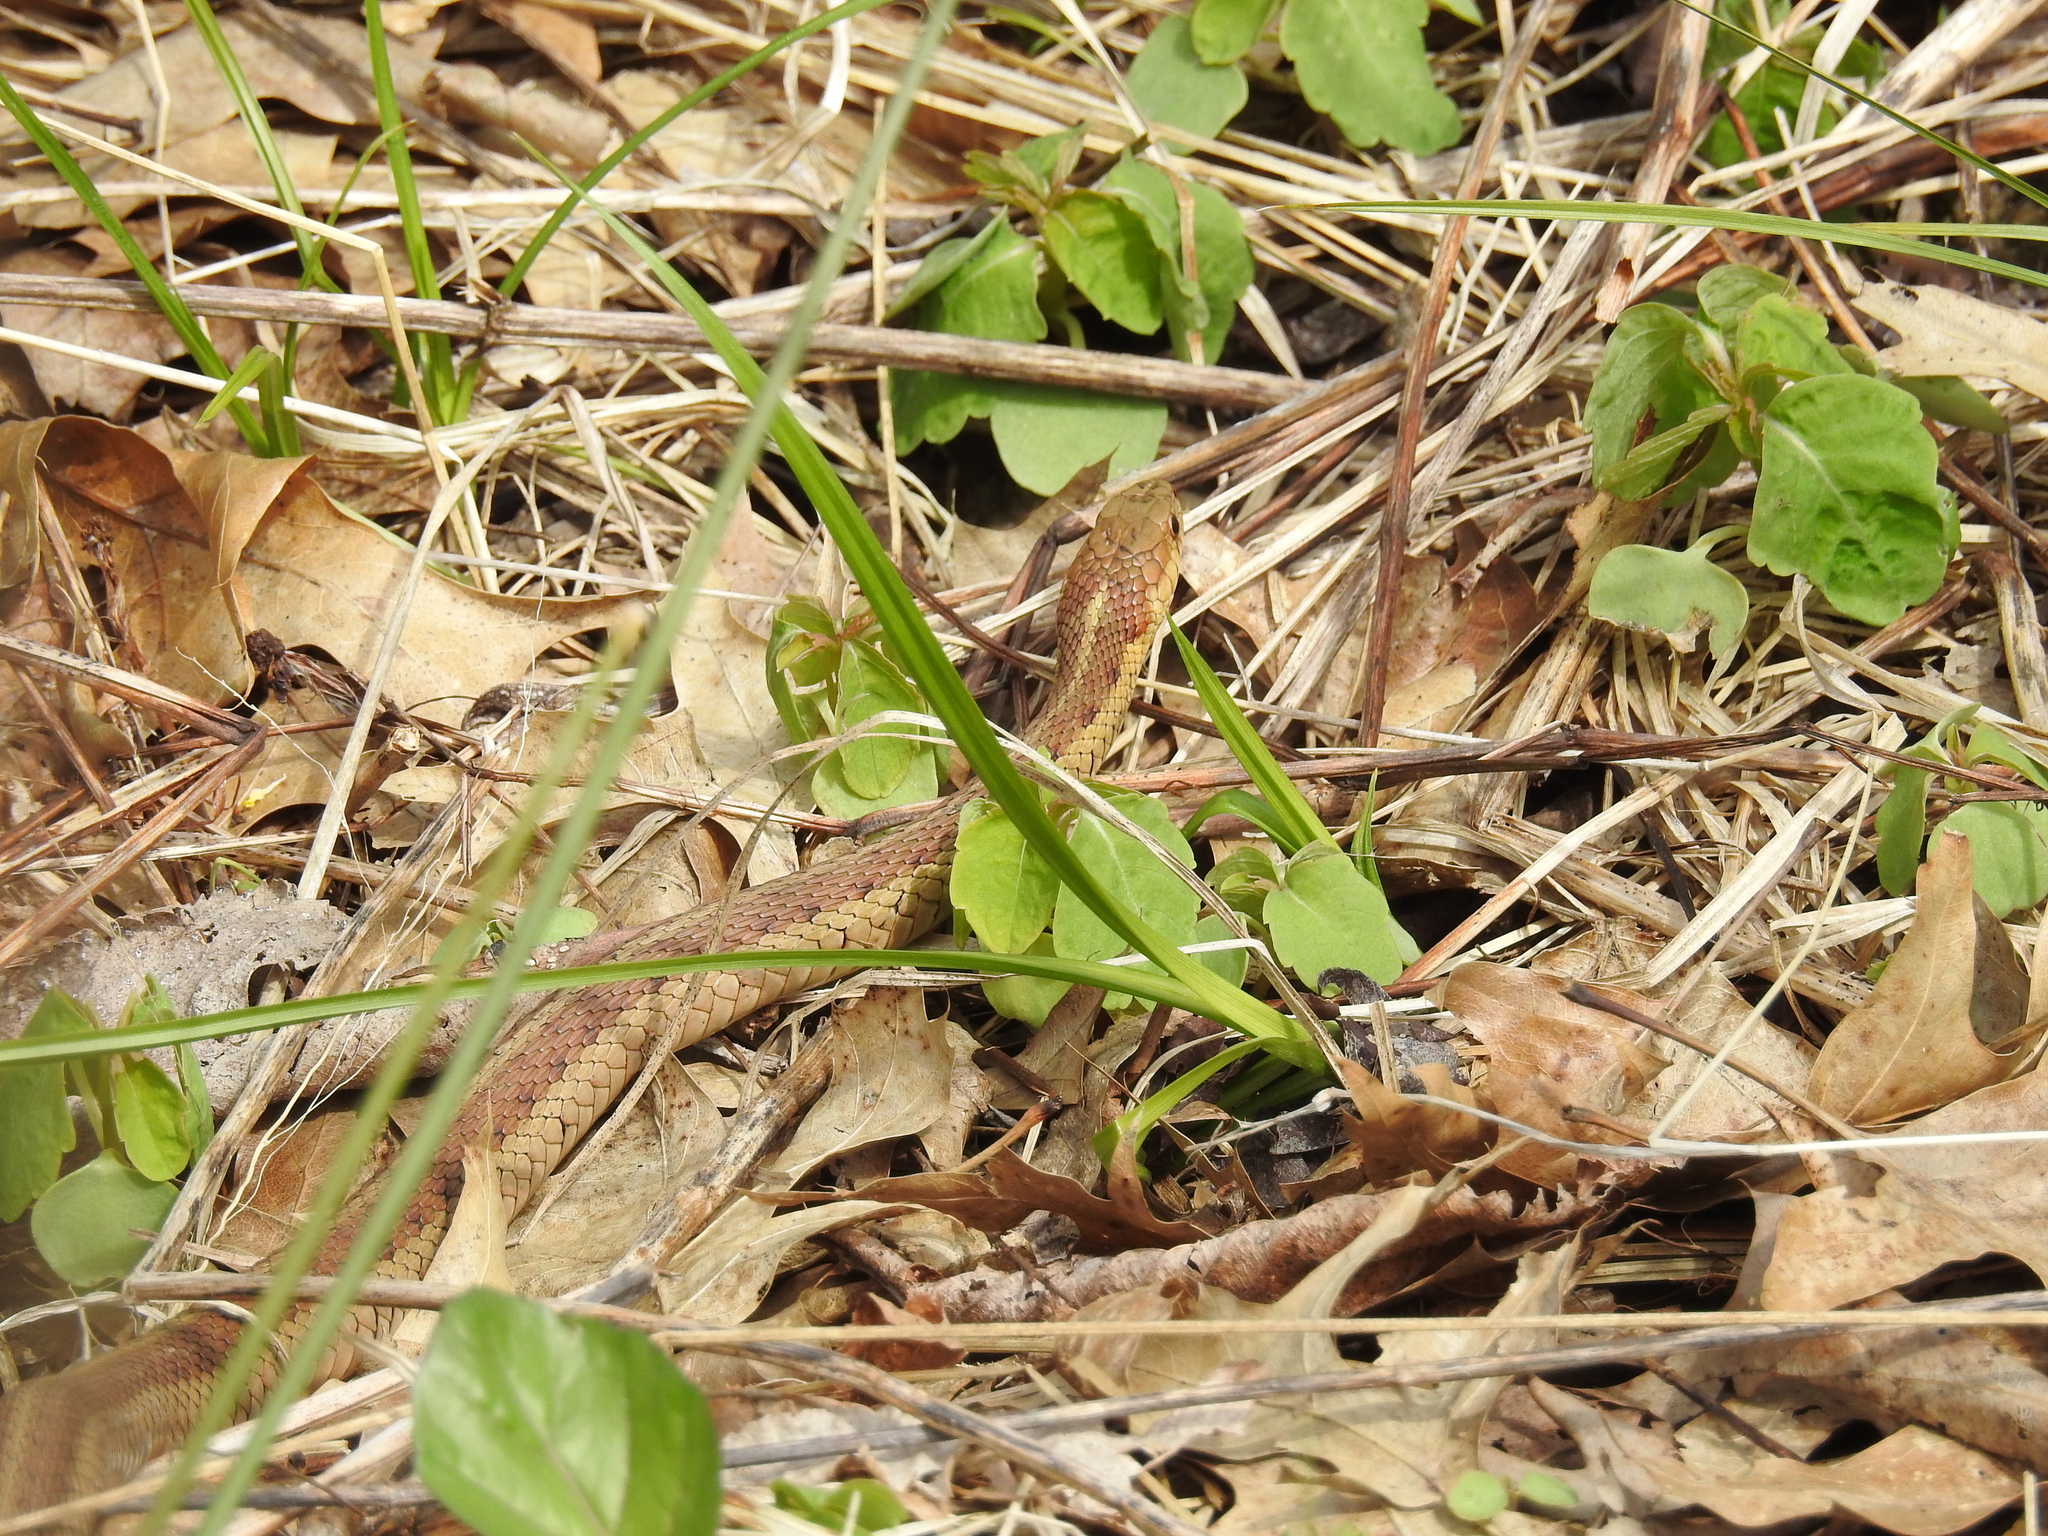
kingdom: Animalia
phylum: Chordata
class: Squamata
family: Colubridae
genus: Thamnophis
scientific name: Thamnophis sirtalis
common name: Common garter snake
